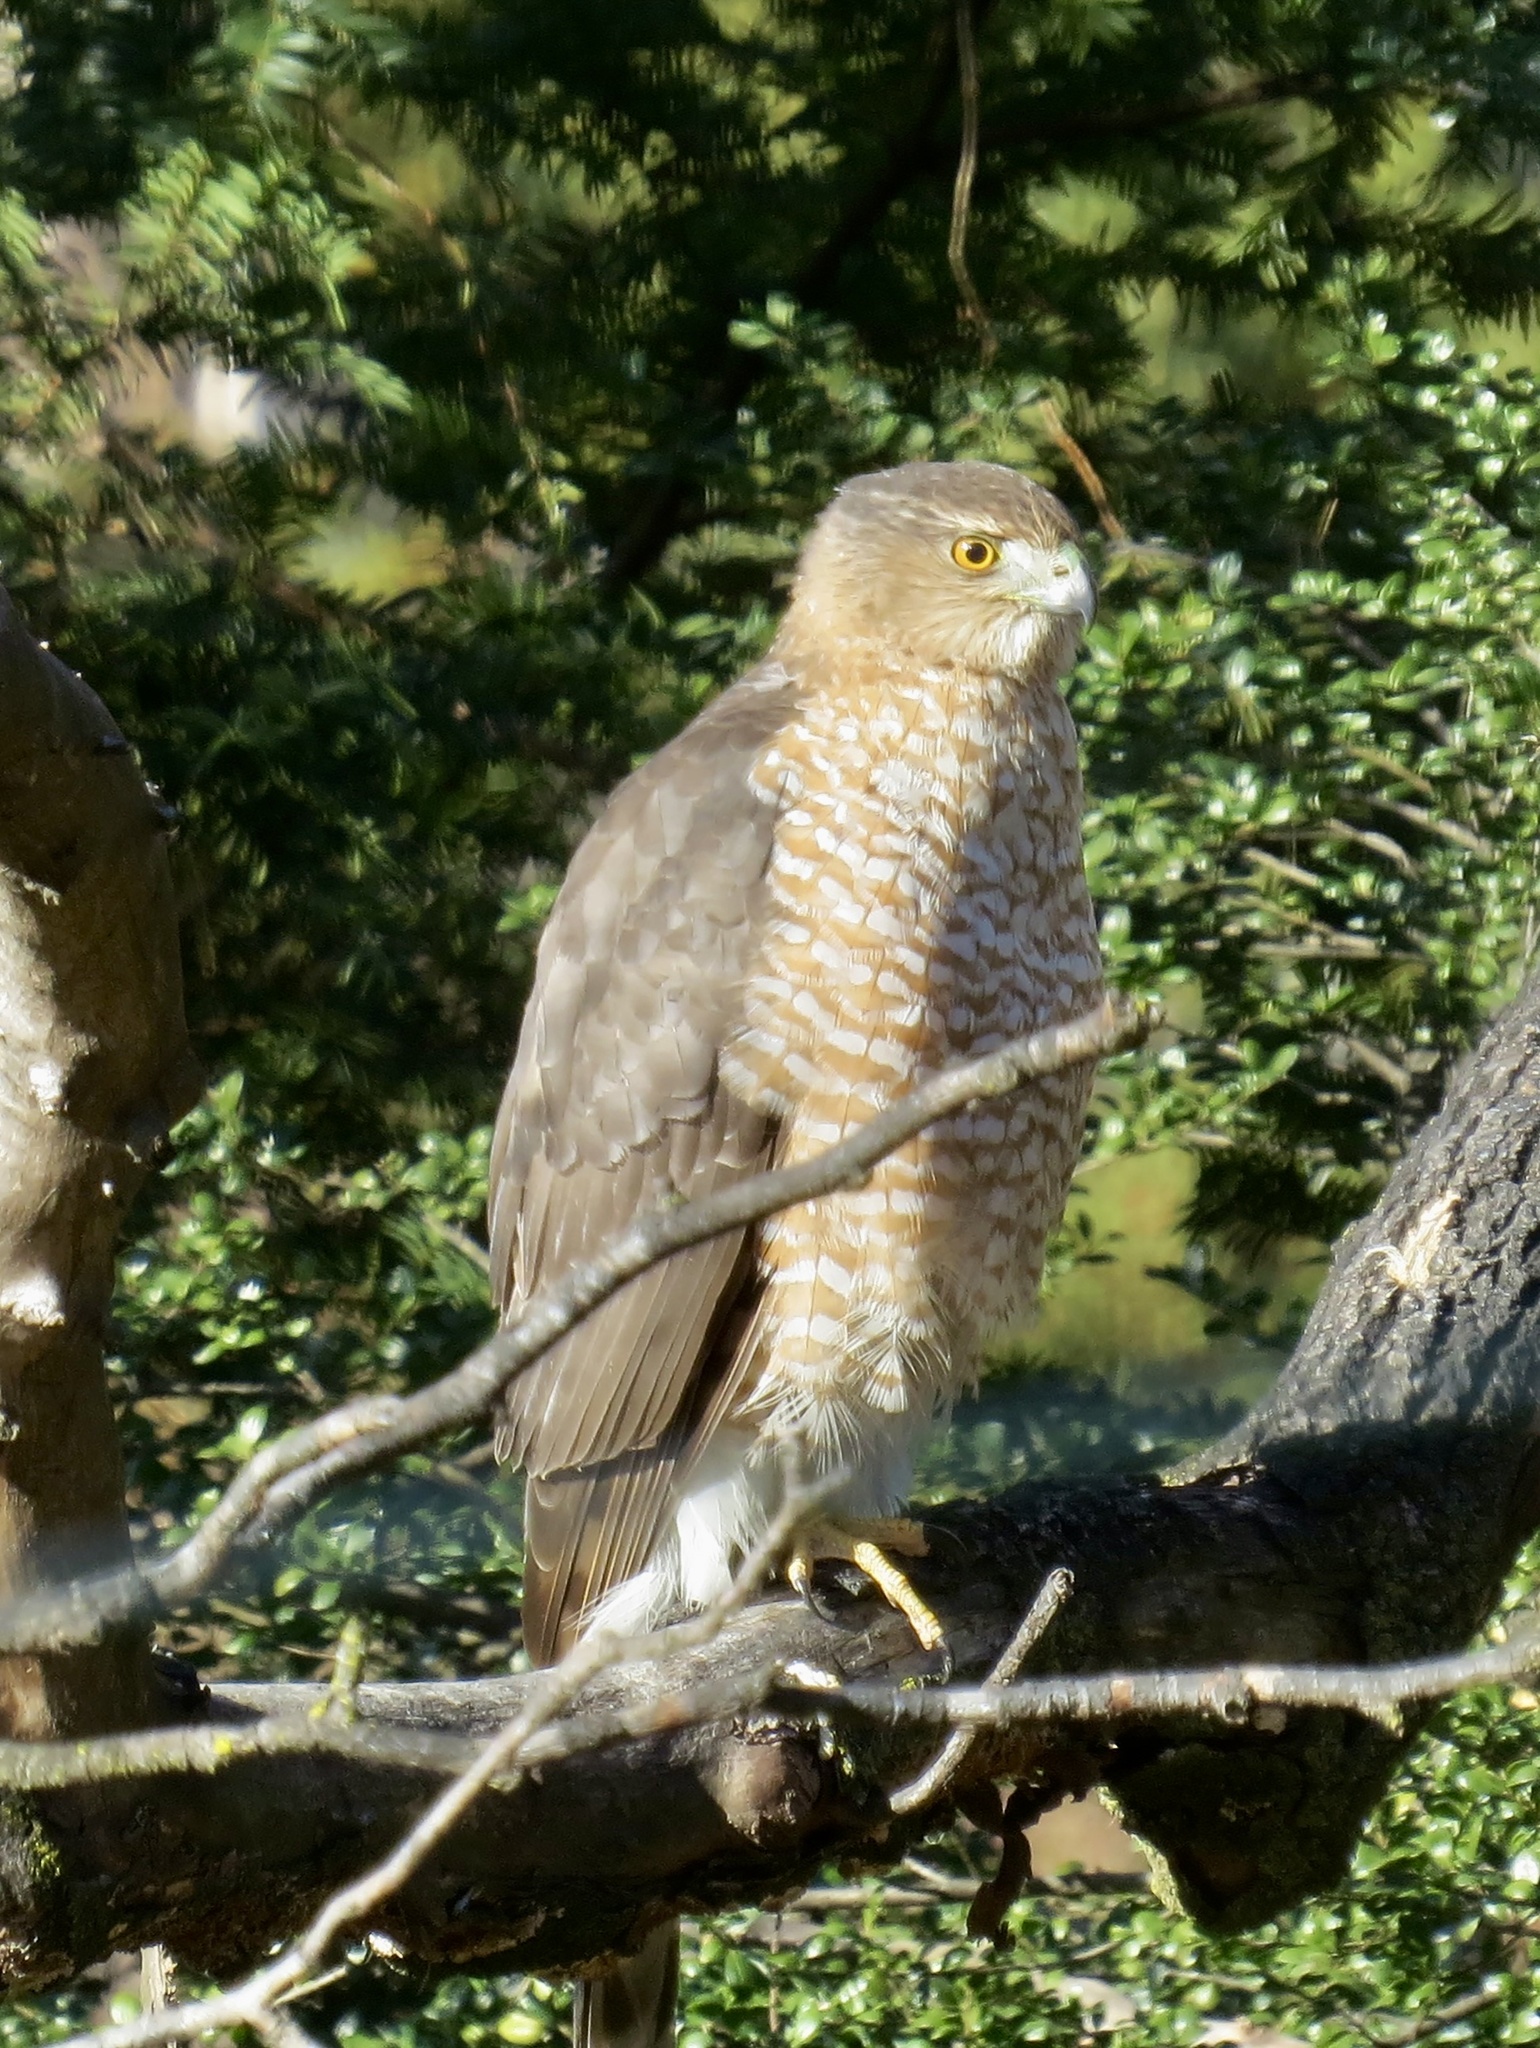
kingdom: Animalia
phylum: Chordata
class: Aves
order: Accipitriformes
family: Accipitridae
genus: Accipiter
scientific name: Accipiter cooperii
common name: Cooper's hawk
